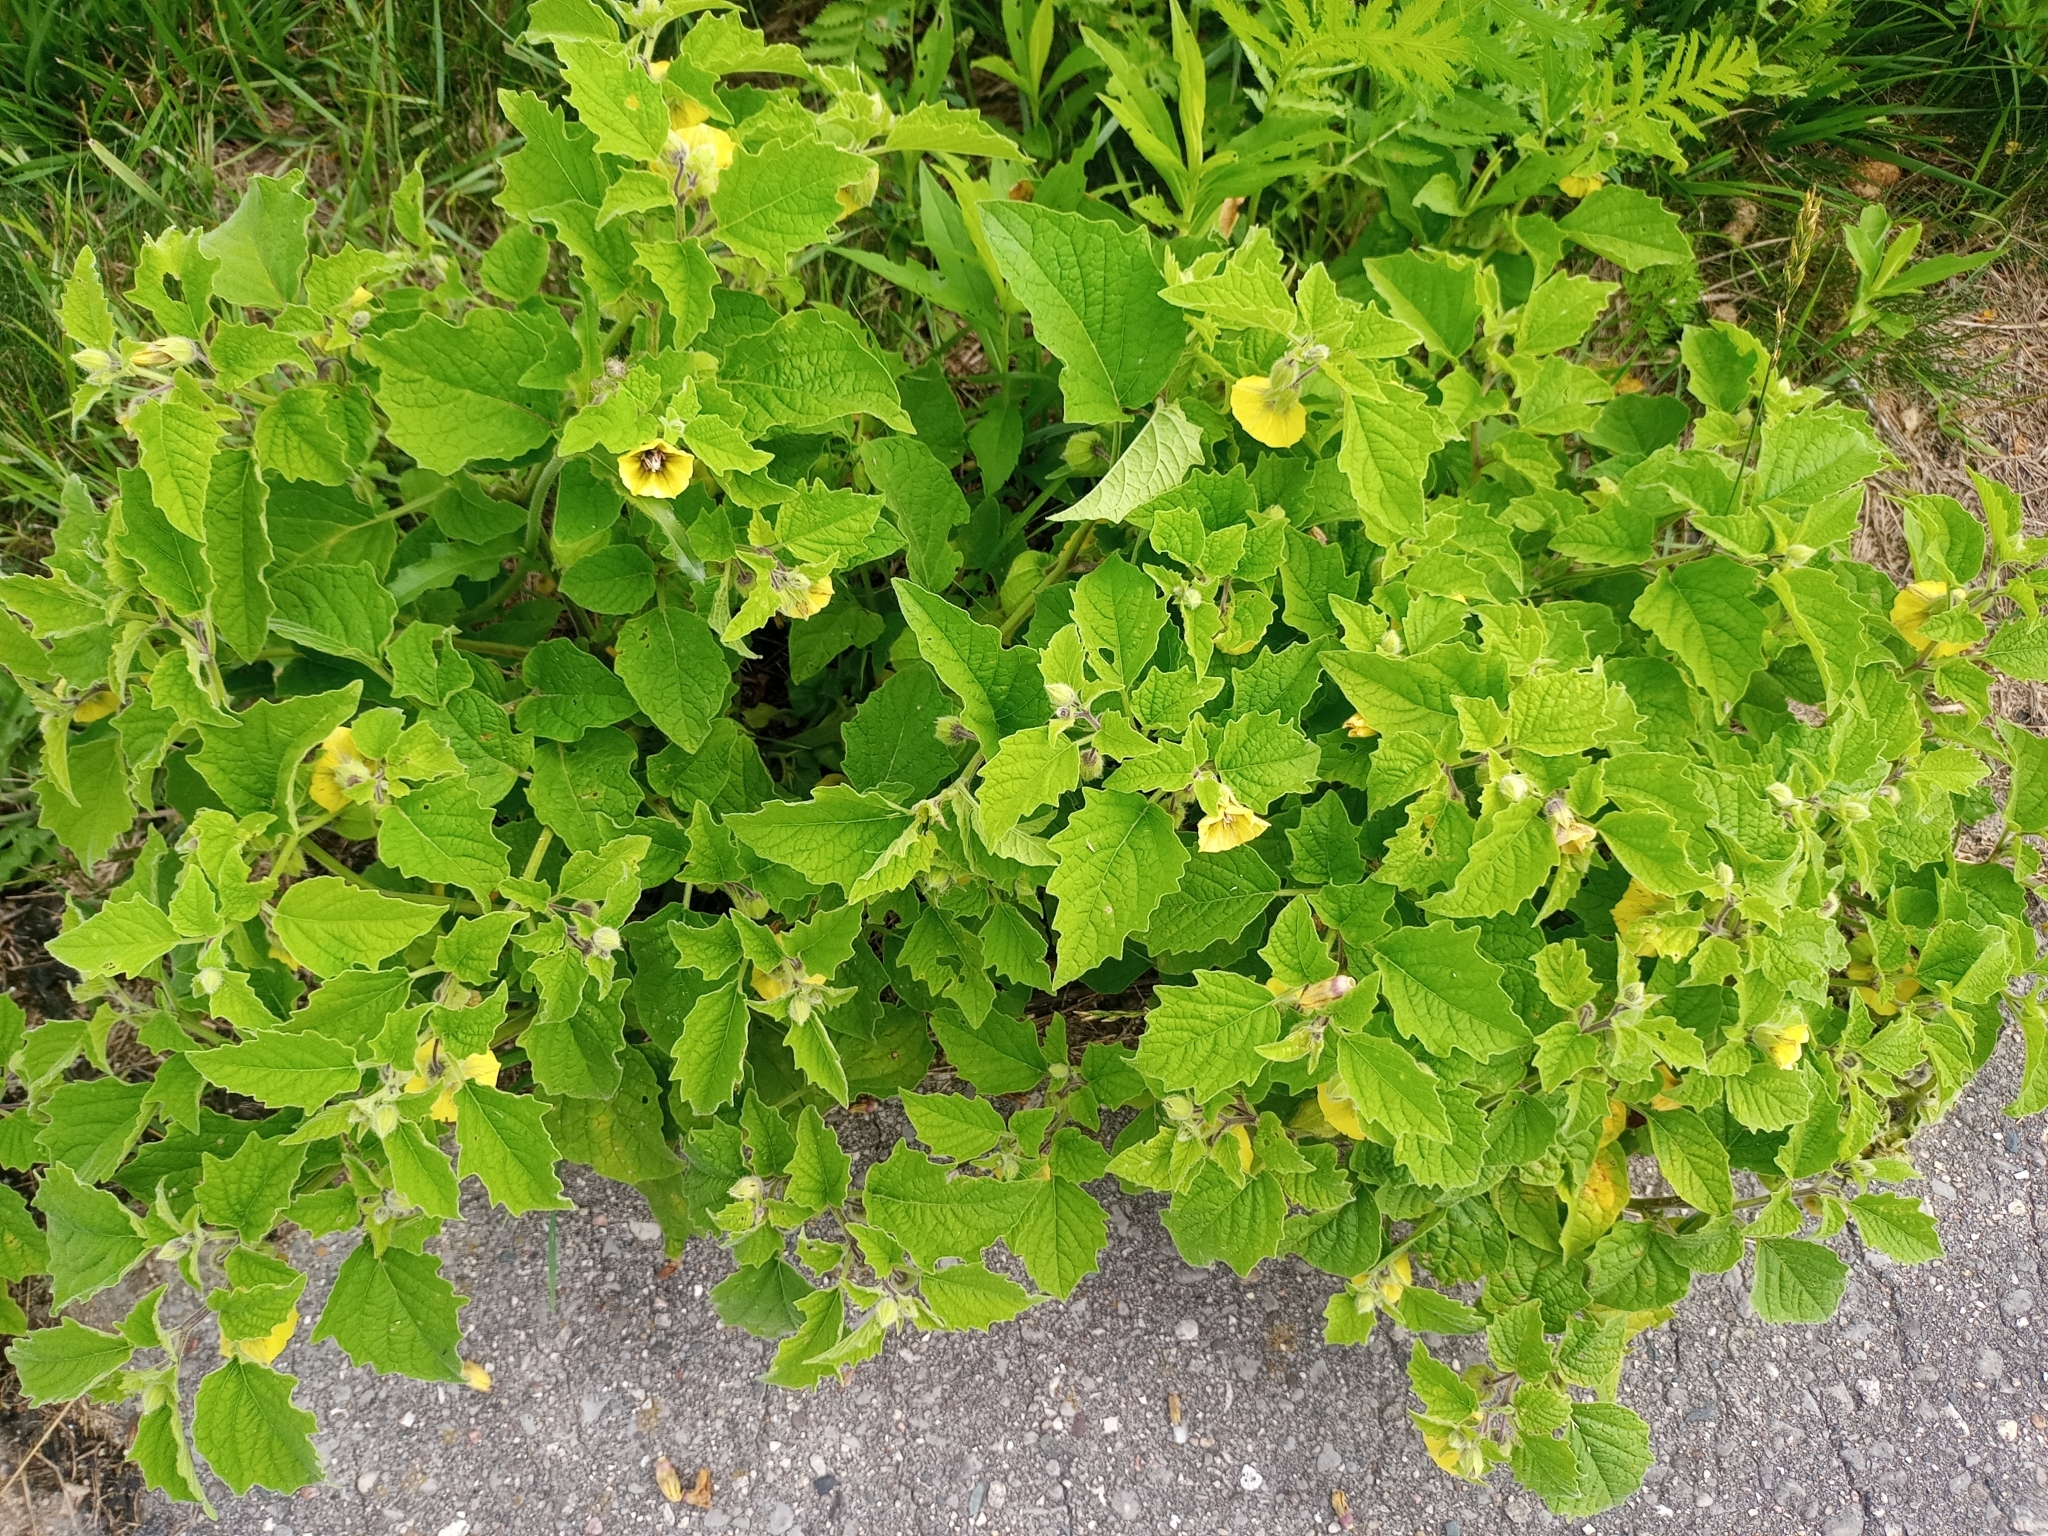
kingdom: Plantae
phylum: Tracheophyta
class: Magnoliopsida
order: Solanales
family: Solanaceae
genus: Physalis
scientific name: Physalis heterophylla
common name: Clammy ground-cherry
